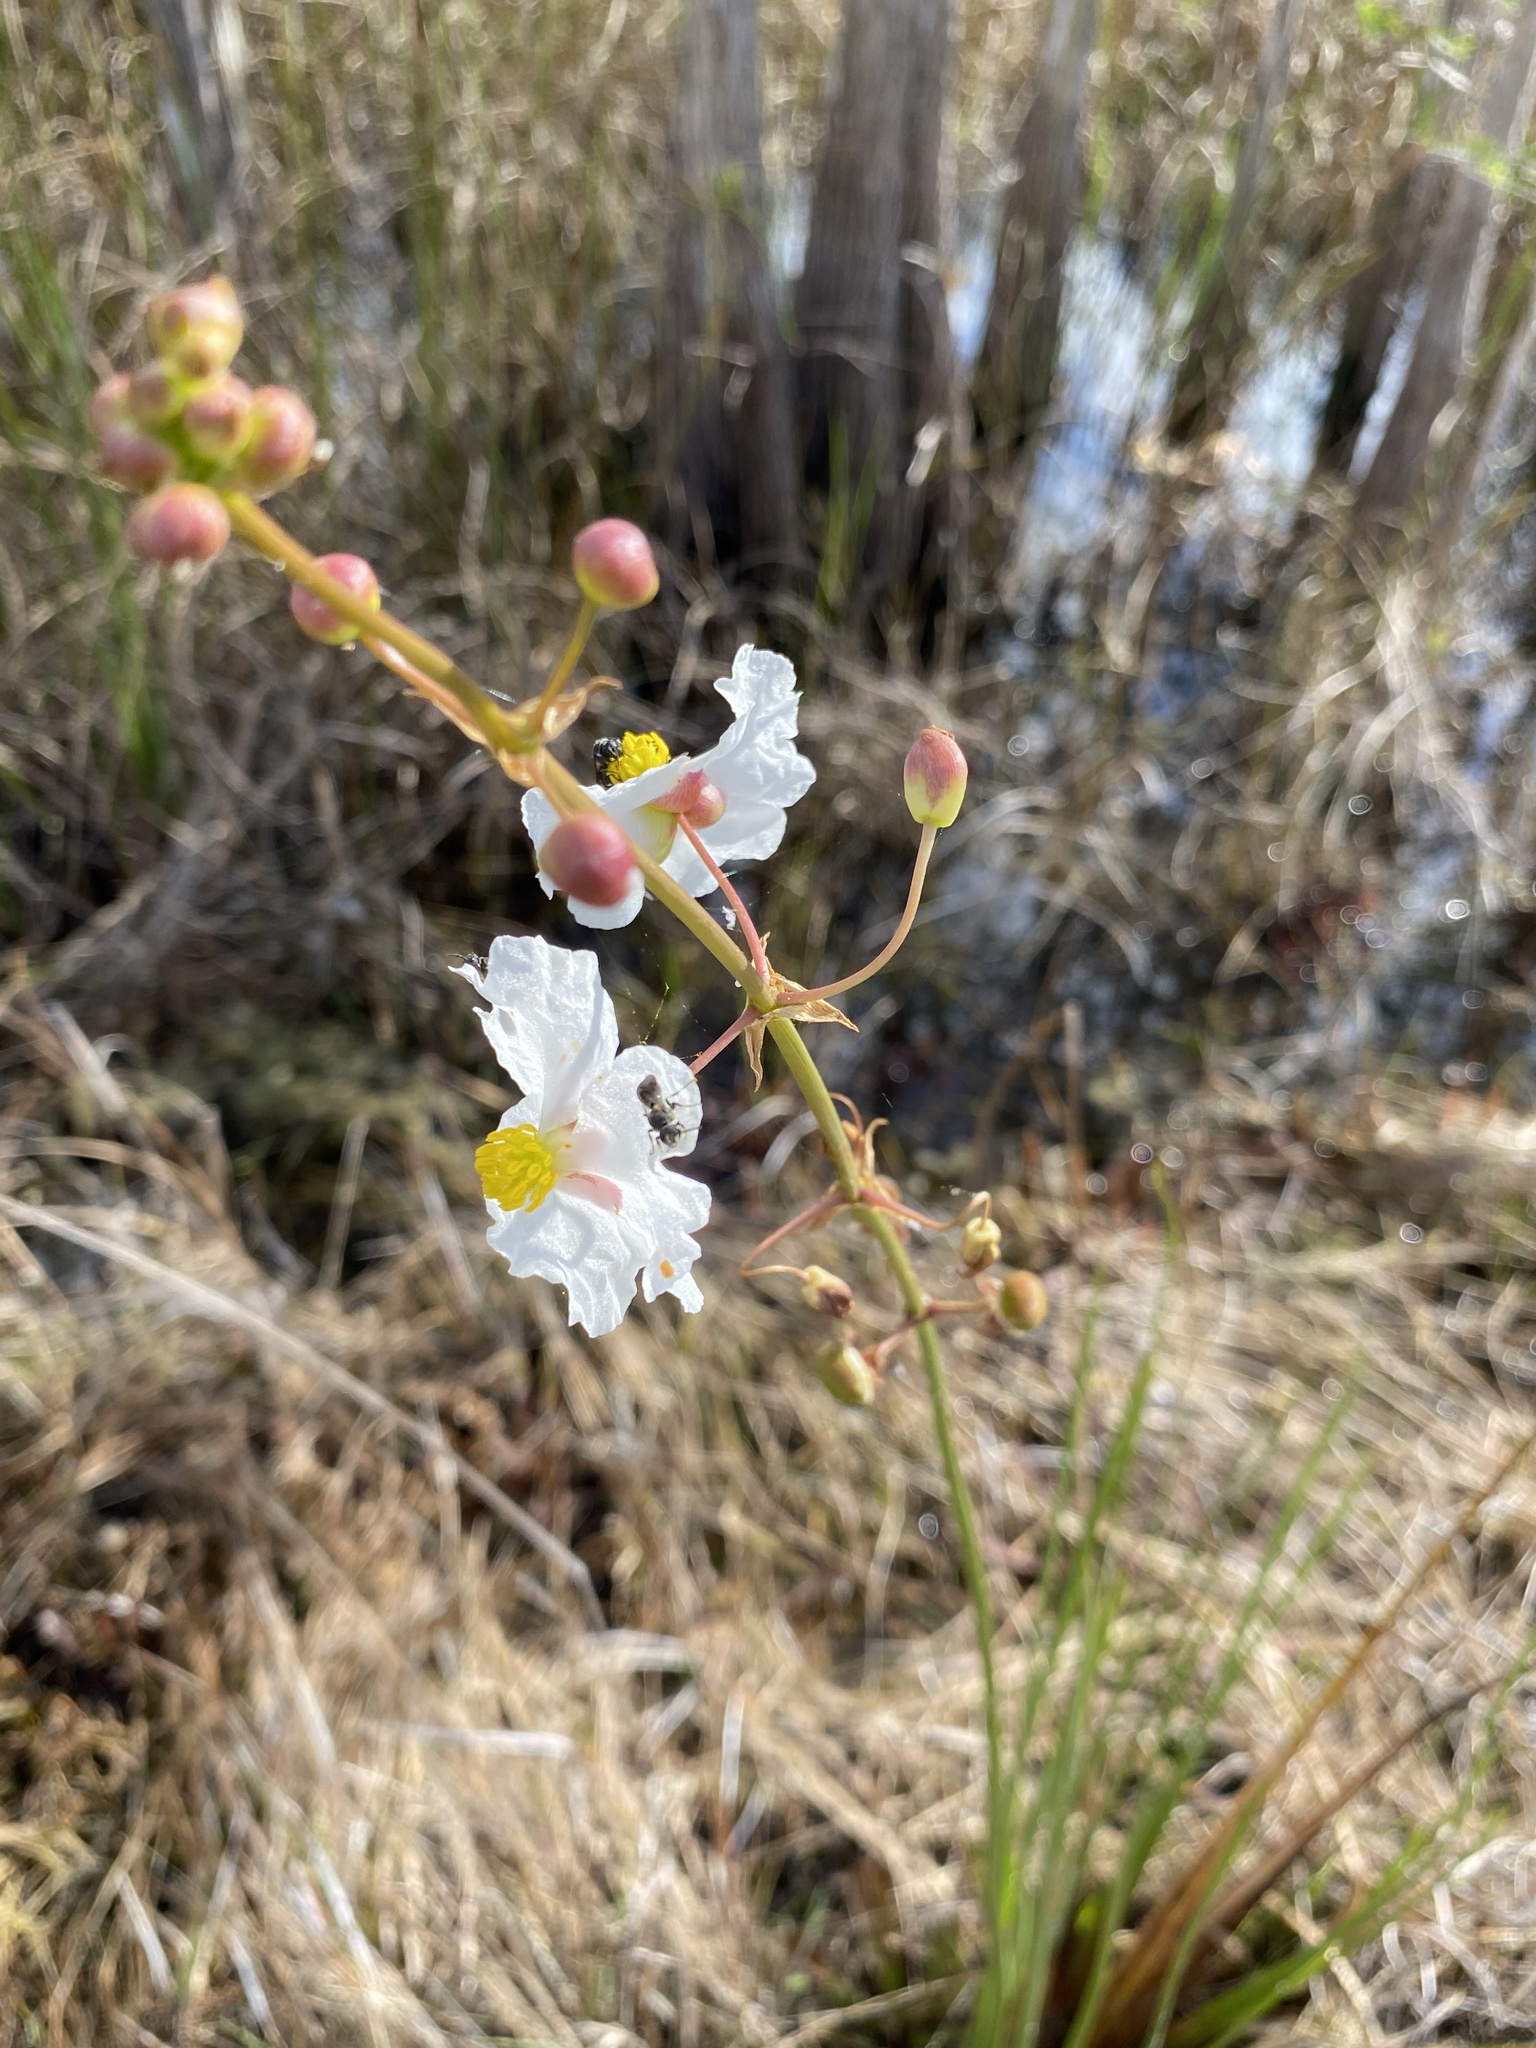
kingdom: Plantae
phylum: Tracheophyta
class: Liliopsida
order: Alismatales
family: Alismataceae
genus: Sagittaria
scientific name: Sagittaria lancifolia
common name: Lance-leaf arrowhead
